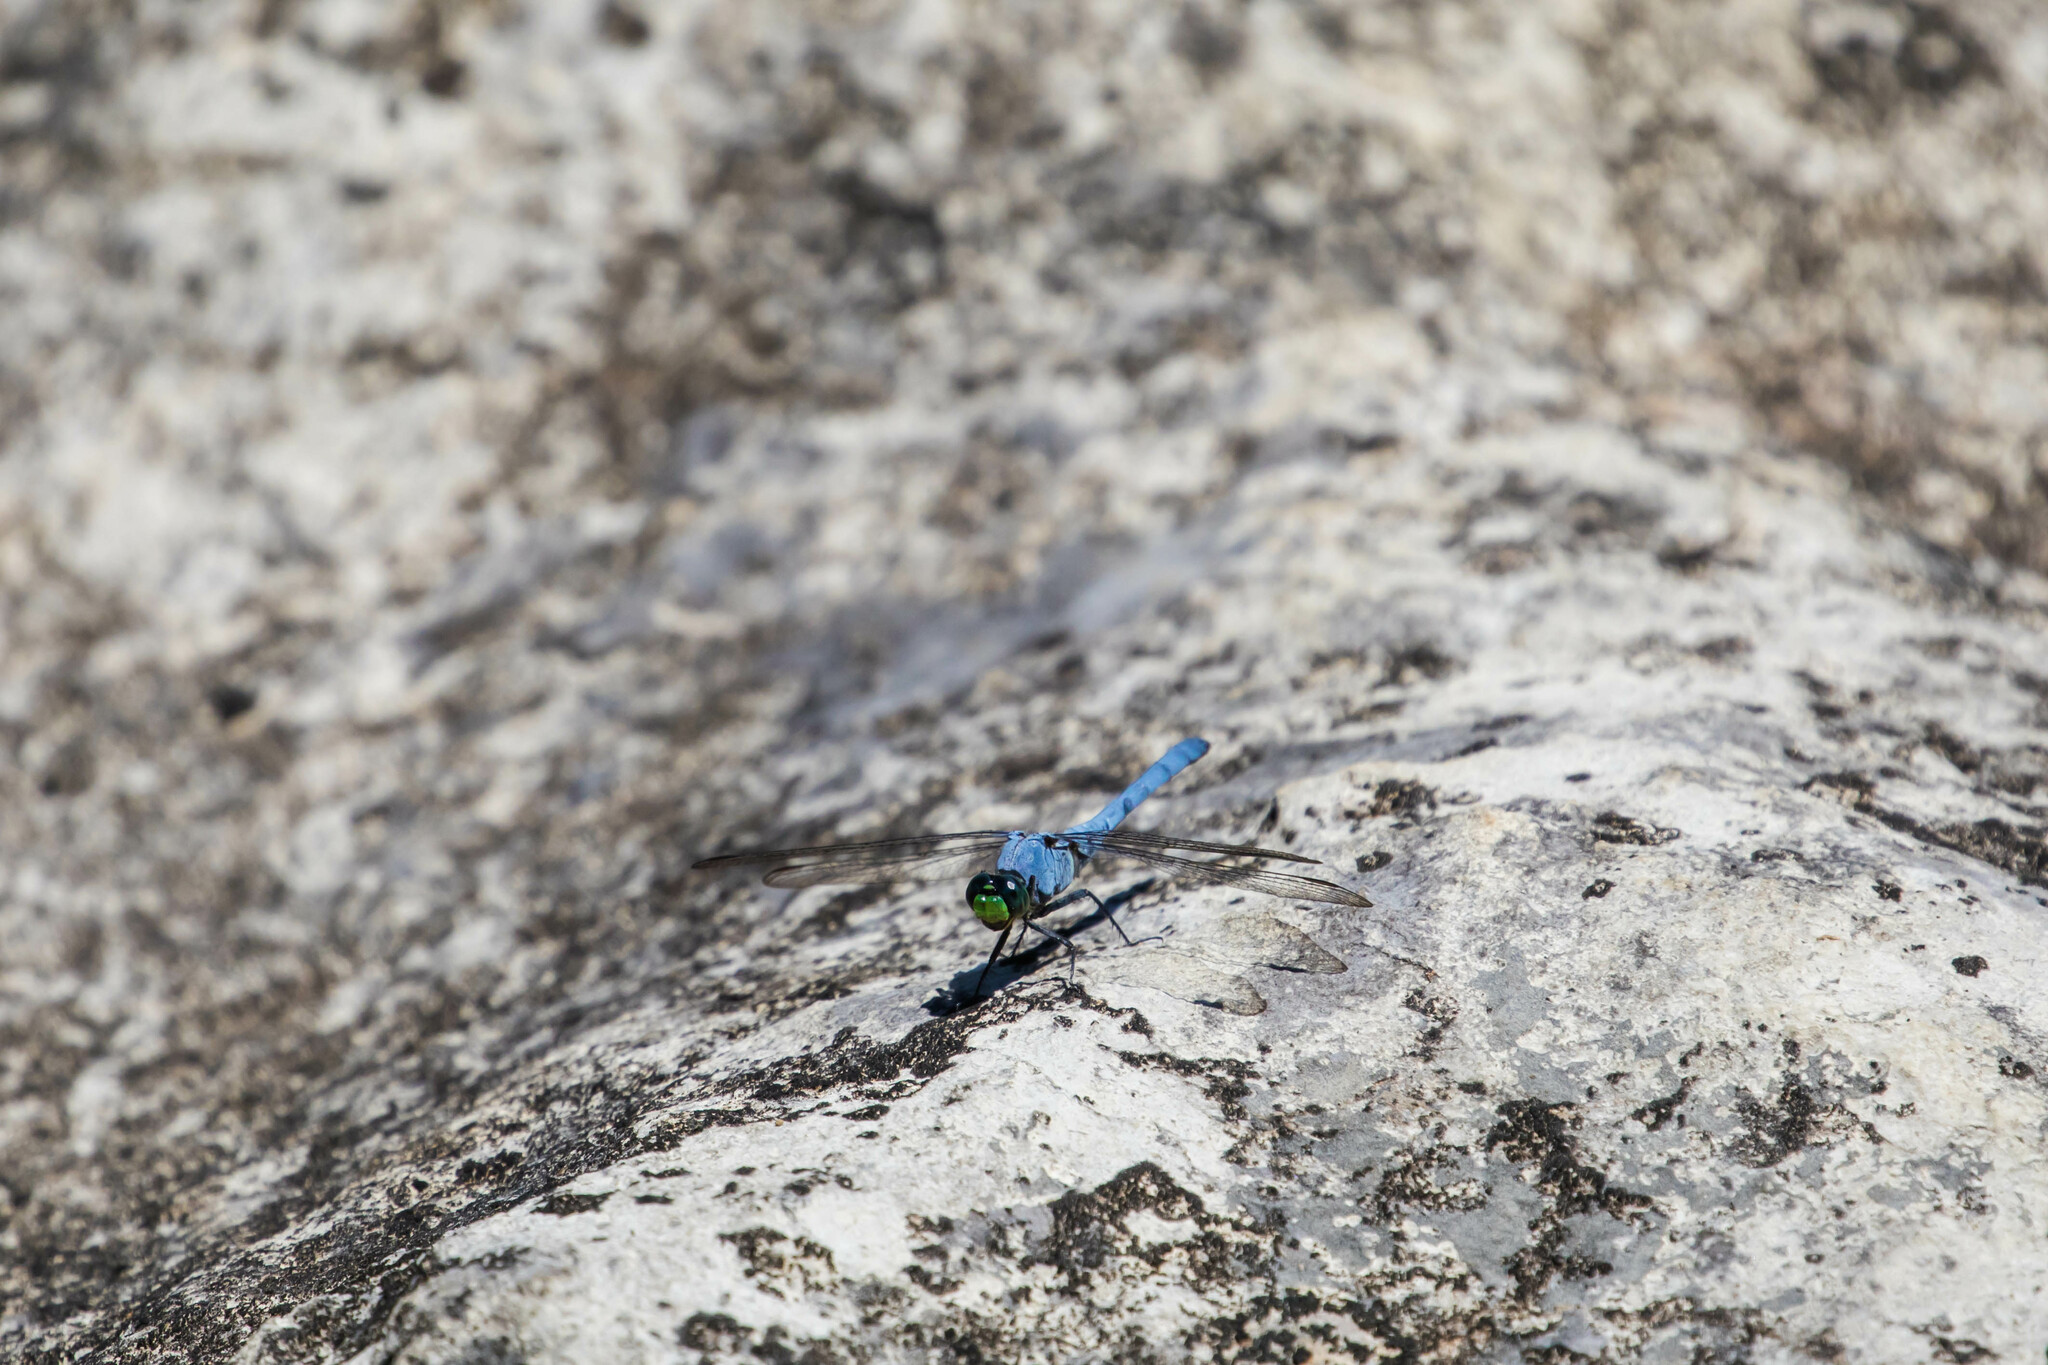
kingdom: Animalia
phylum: Arthropoda
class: Insecta
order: Odonata
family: Libellulidae
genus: Erythemis
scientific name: Erythemis simplicicollis
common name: Eastern pondhawk
